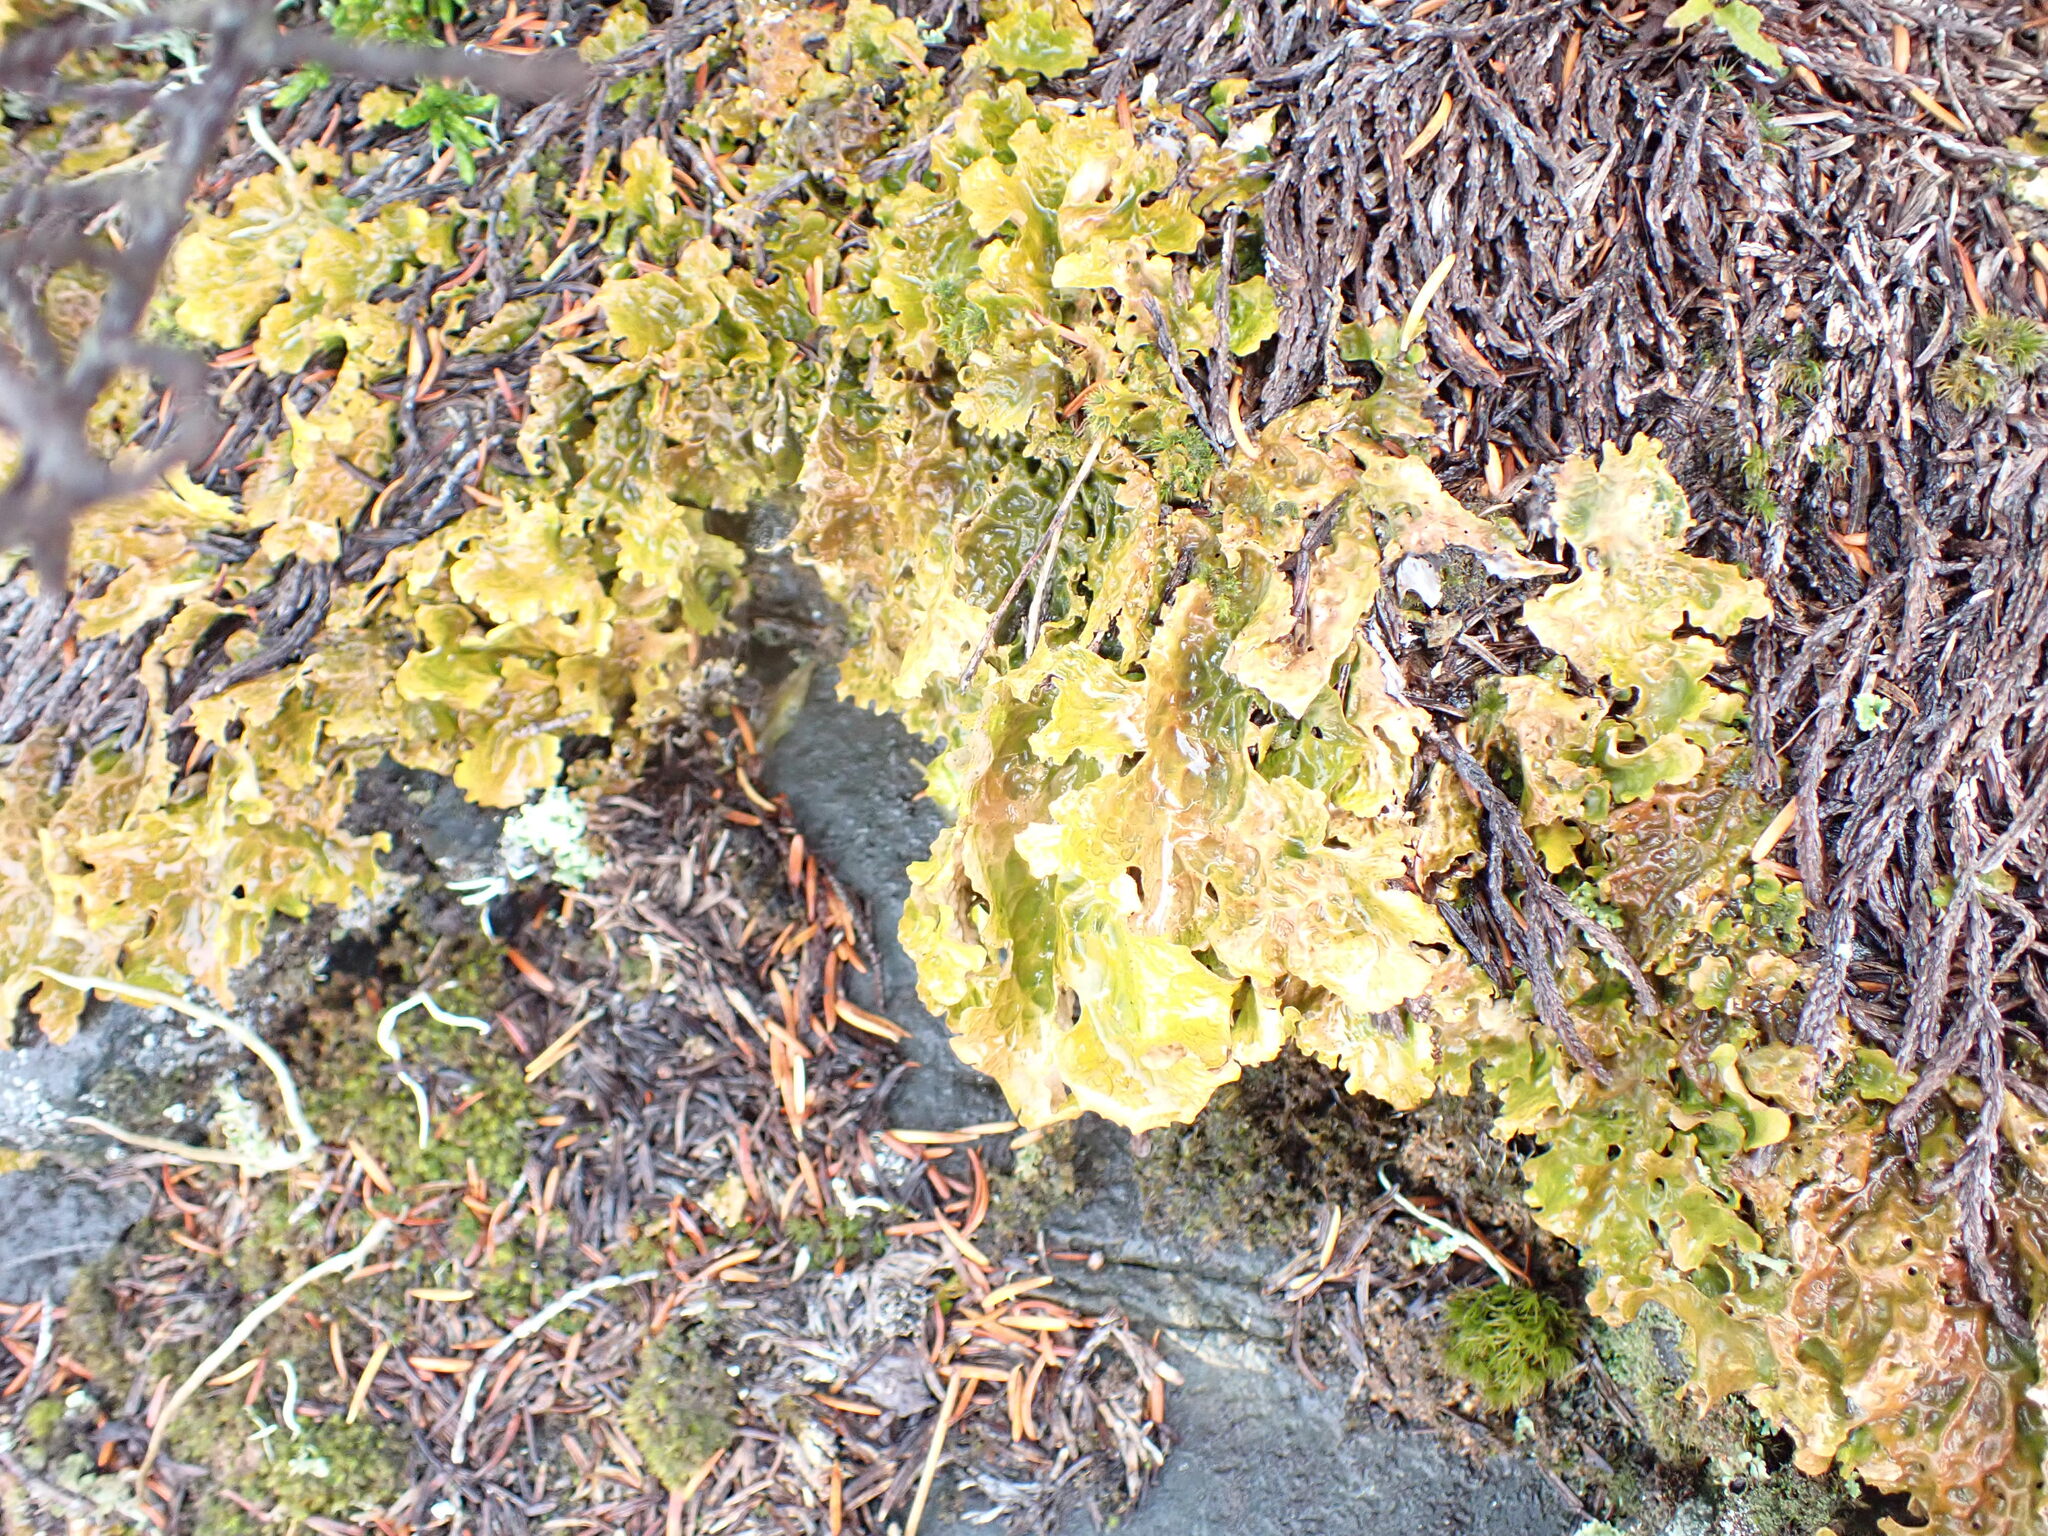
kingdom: Fungi
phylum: Ascomycota
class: Lecanoromycetes
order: Peltigerales
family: Lobariaceae
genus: Lobaria
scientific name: Lobaria linita
